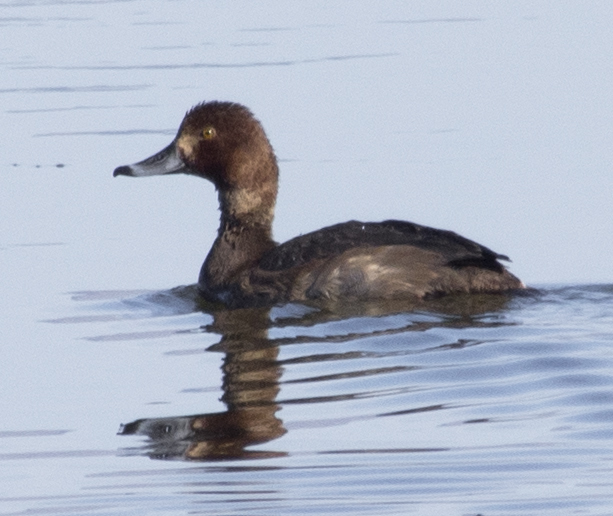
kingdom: Animalia
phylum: Chordata
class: Aves
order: Anseriformes
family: Anatidae
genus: Aythya
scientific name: Aythya americana
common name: Redhead
